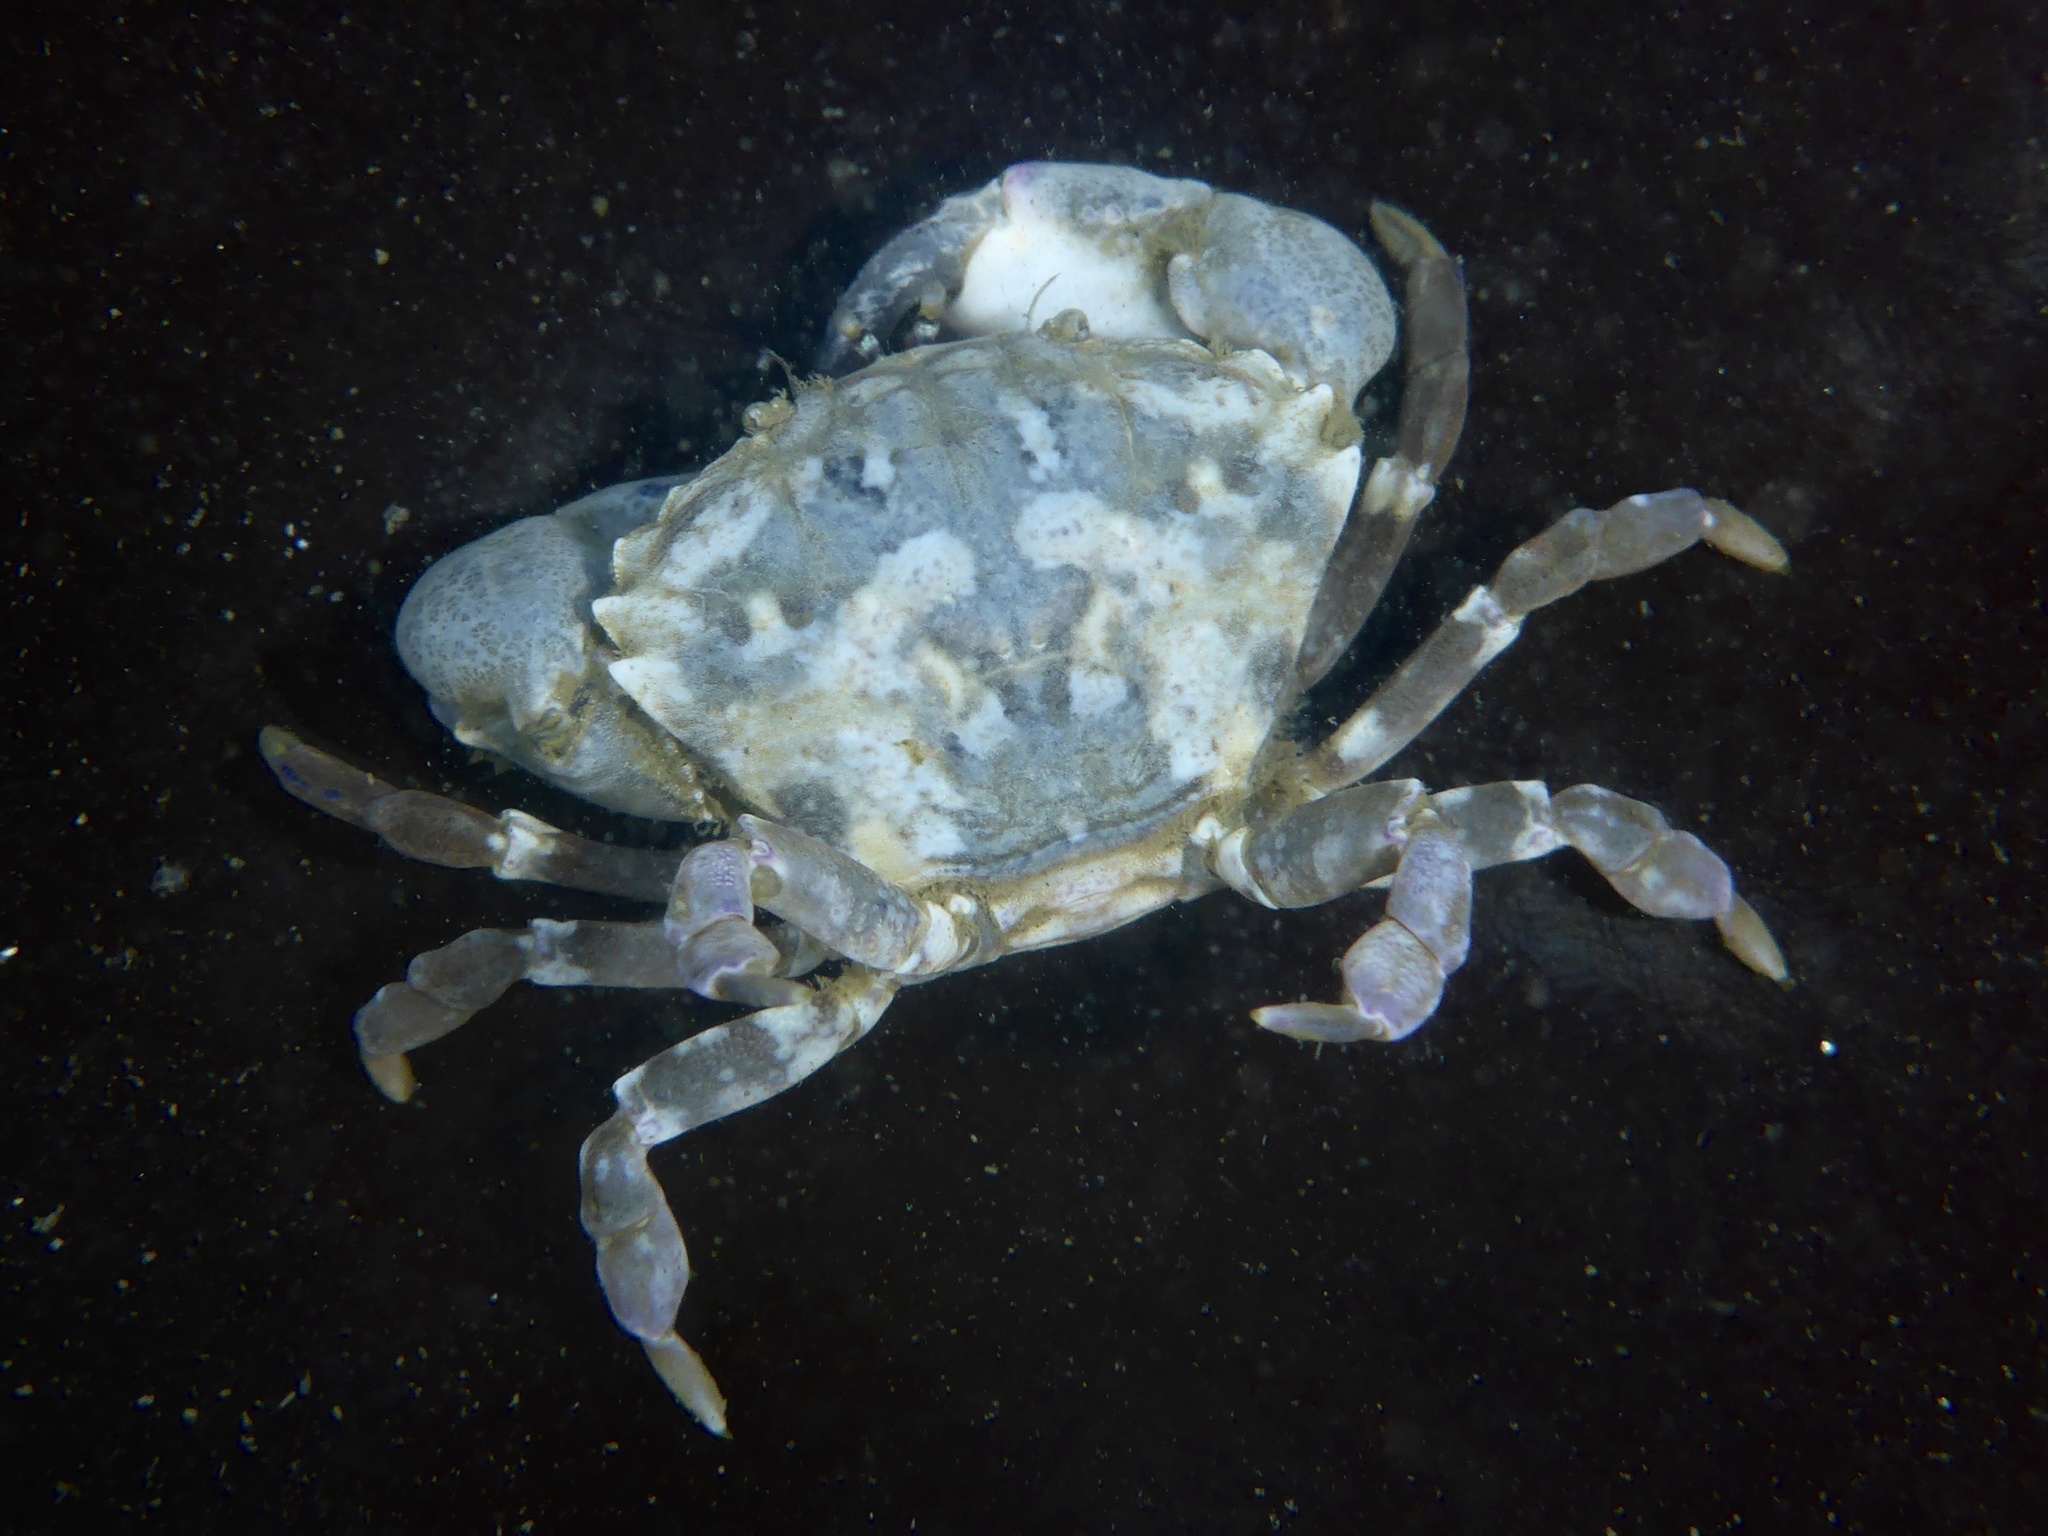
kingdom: Animalia
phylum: Arthropoda
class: Malacostraca
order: Decapoda
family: Panopeidae
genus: Lophopanopeus
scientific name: Lophopanopeus leucomanus
